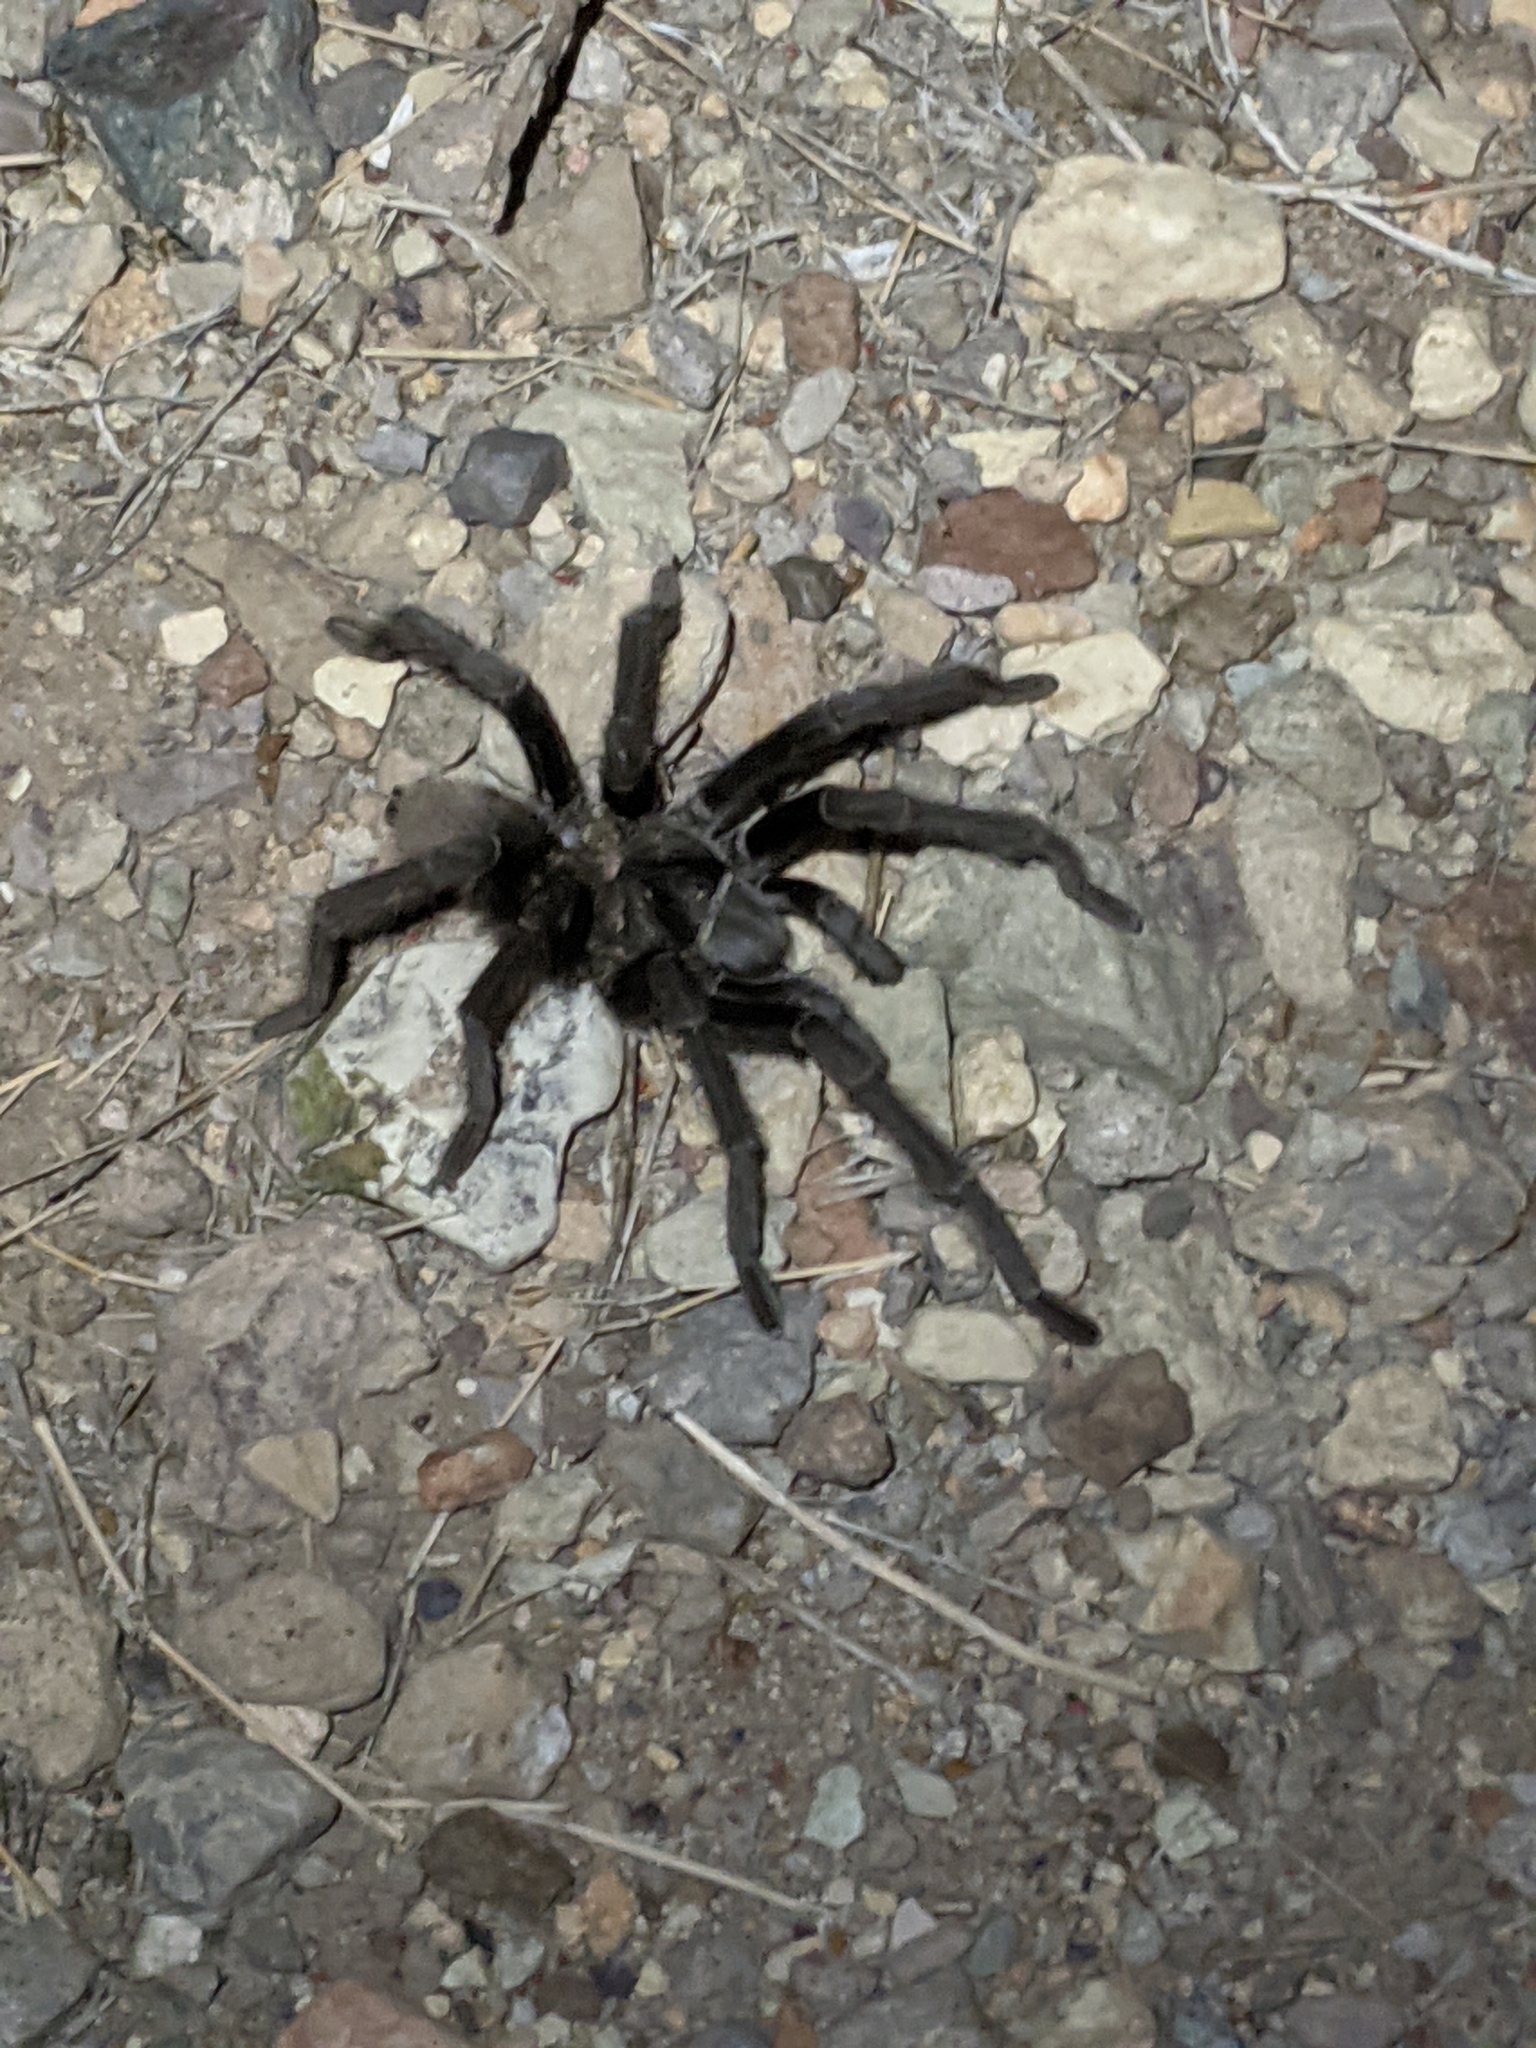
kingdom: Animalia
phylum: Arthropoda
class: Arachnida
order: Araneae
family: Theraphosidae
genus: Aphonopelma
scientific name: Aphonopelma gabeli
